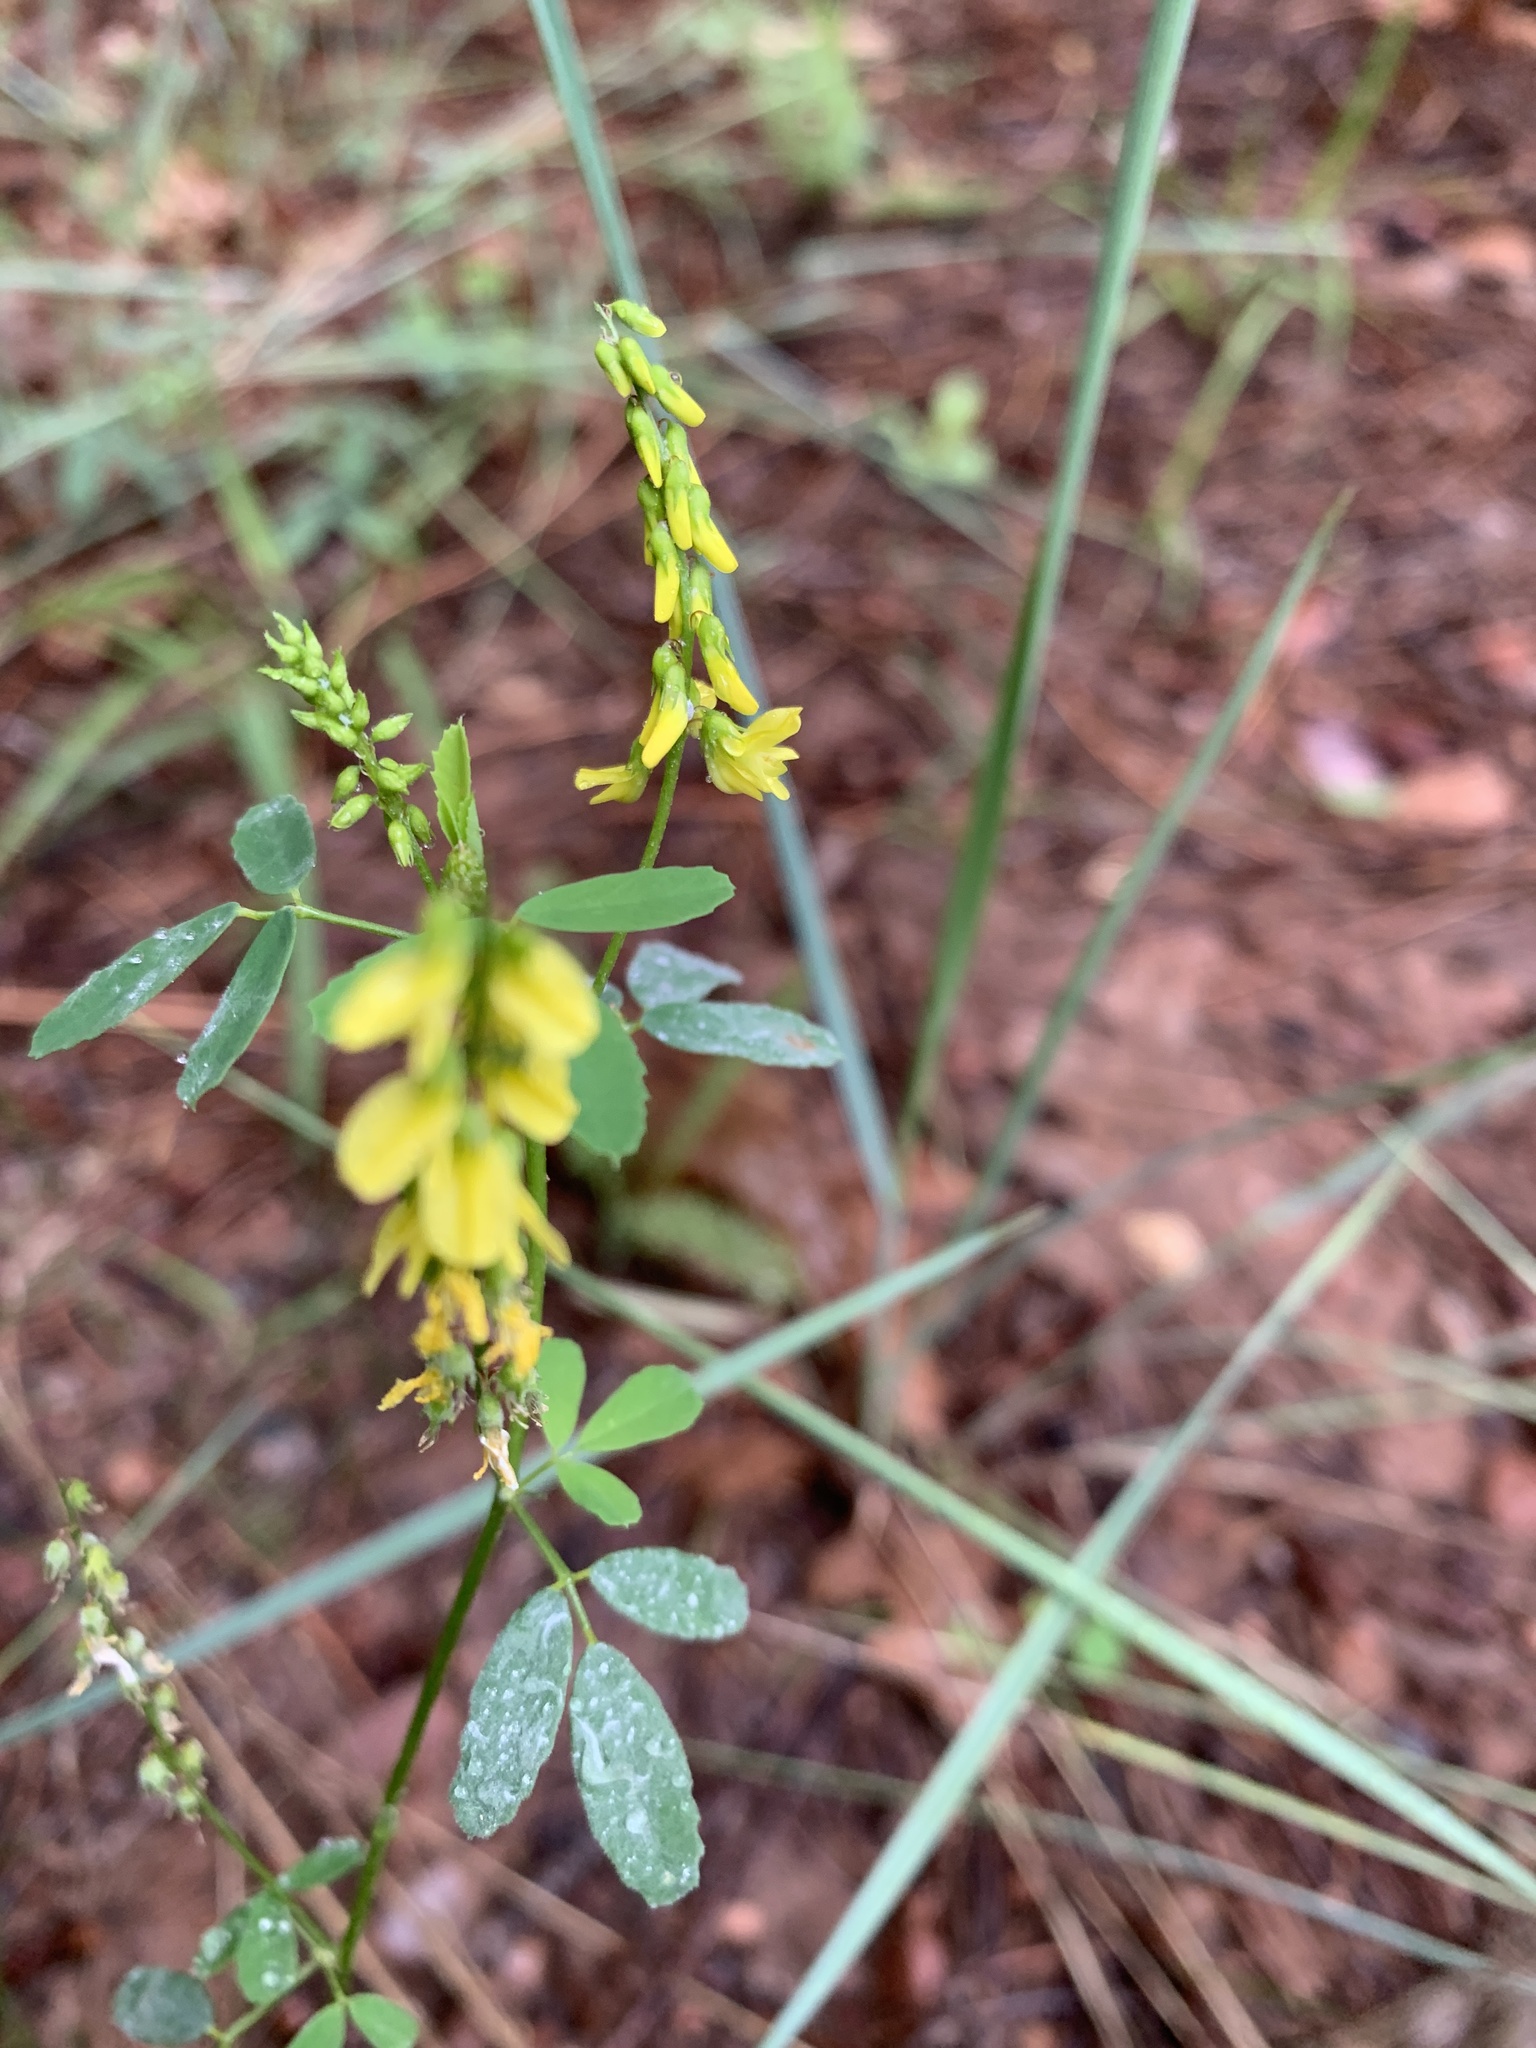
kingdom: Plantae
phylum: Tracheophyta
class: Magnoliopsida
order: Fabales
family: Fabaceae
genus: Melilotus
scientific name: Melilotus officinalis
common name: Sweetclover
